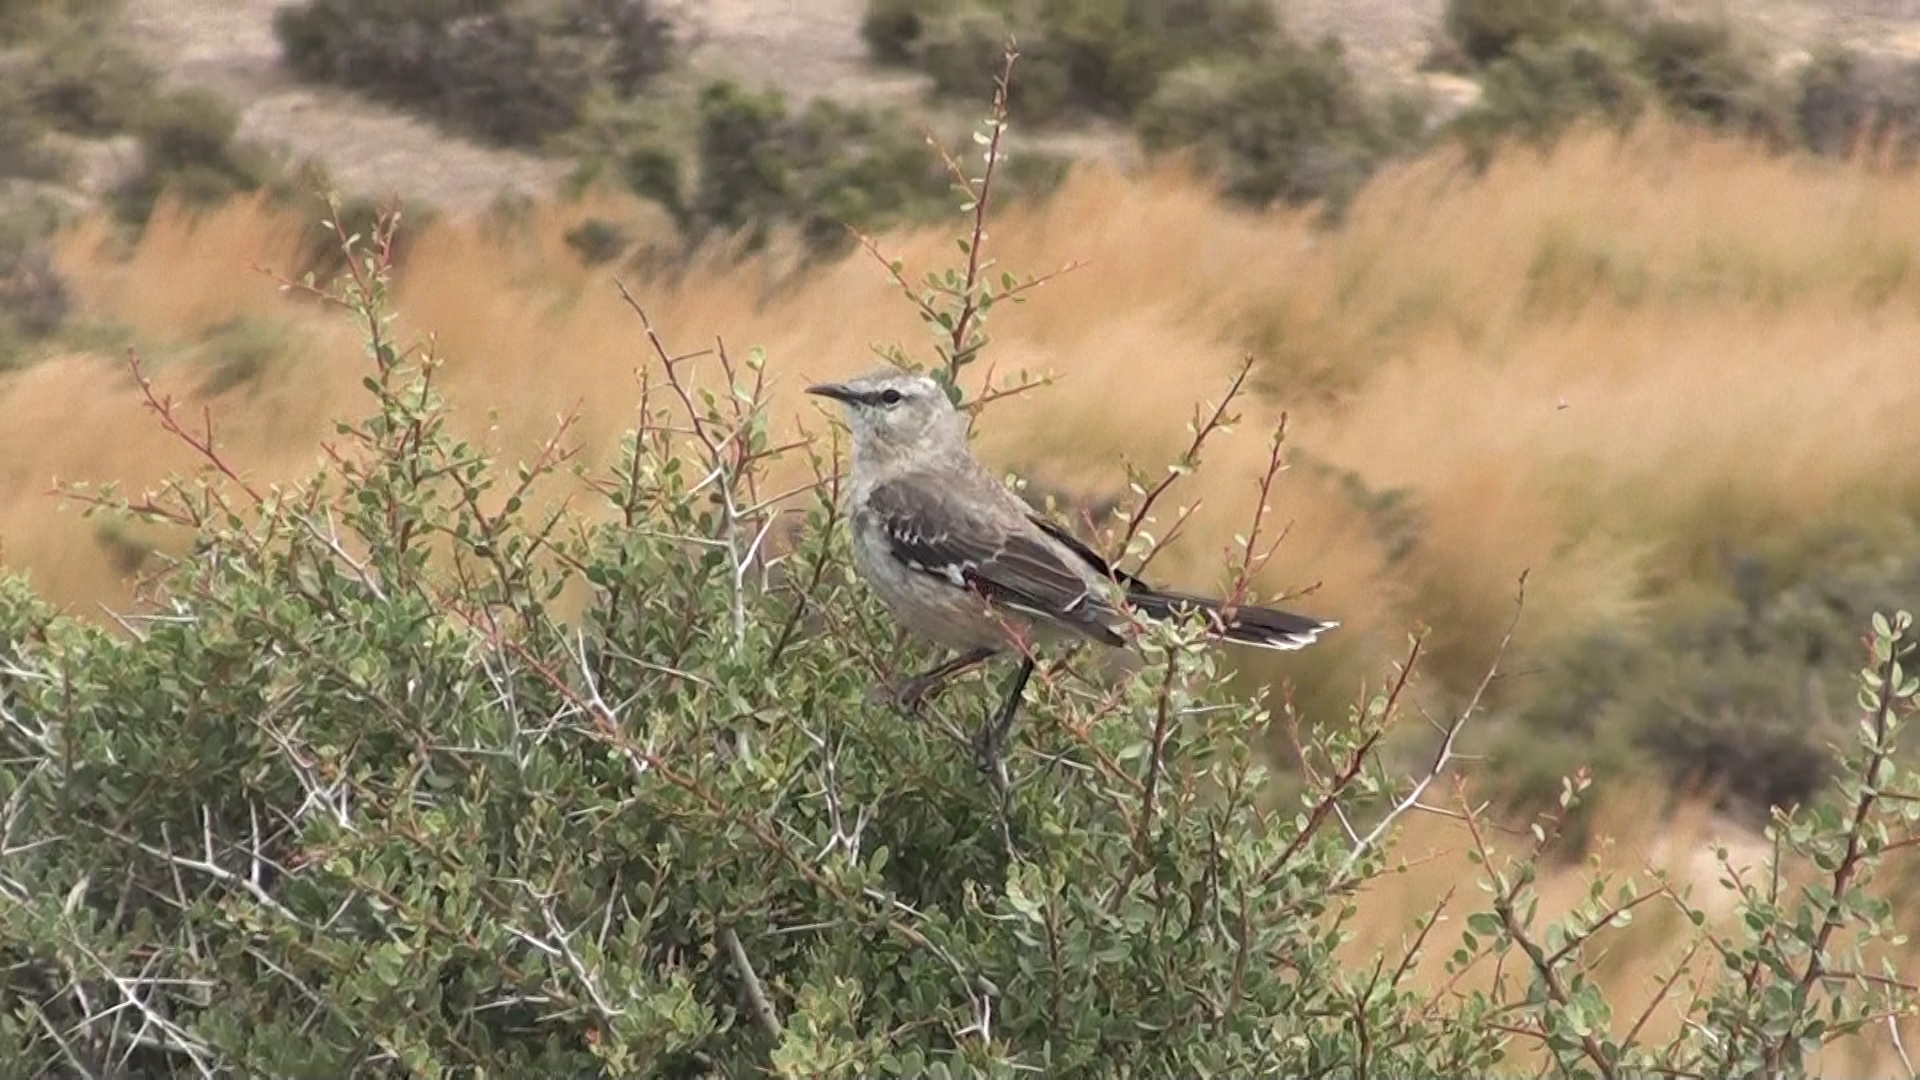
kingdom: Animalia
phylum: Chordata
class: Aves
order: Passeriformes
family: Mimidae
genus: Mimus
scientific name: Mimus patagonicus
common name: Patagonian mockingbird
